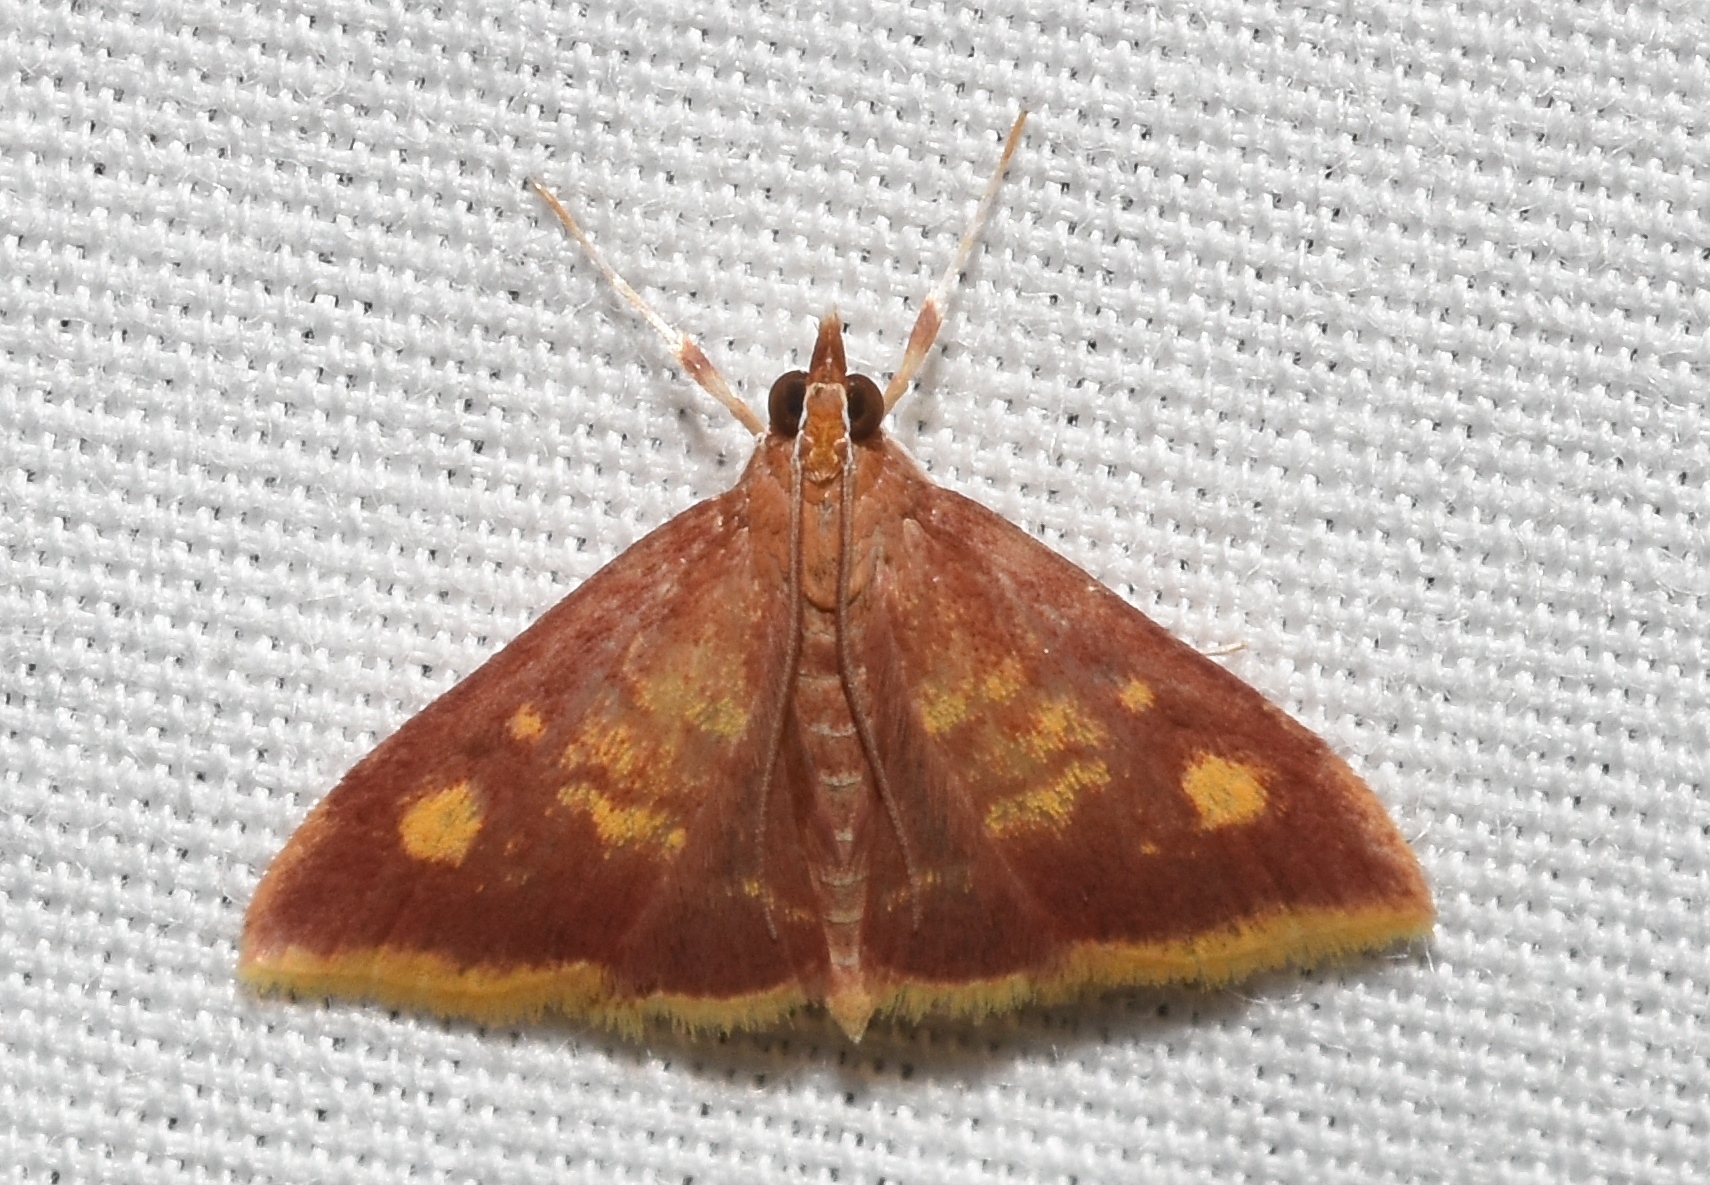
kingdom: Animalia
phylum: Arthropoda
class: Insecta
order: Lepidoptera
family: Crambidae
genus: Pyrausta
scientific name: Pyrausta acrionalis
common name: Mint-loving pyrausta moth
